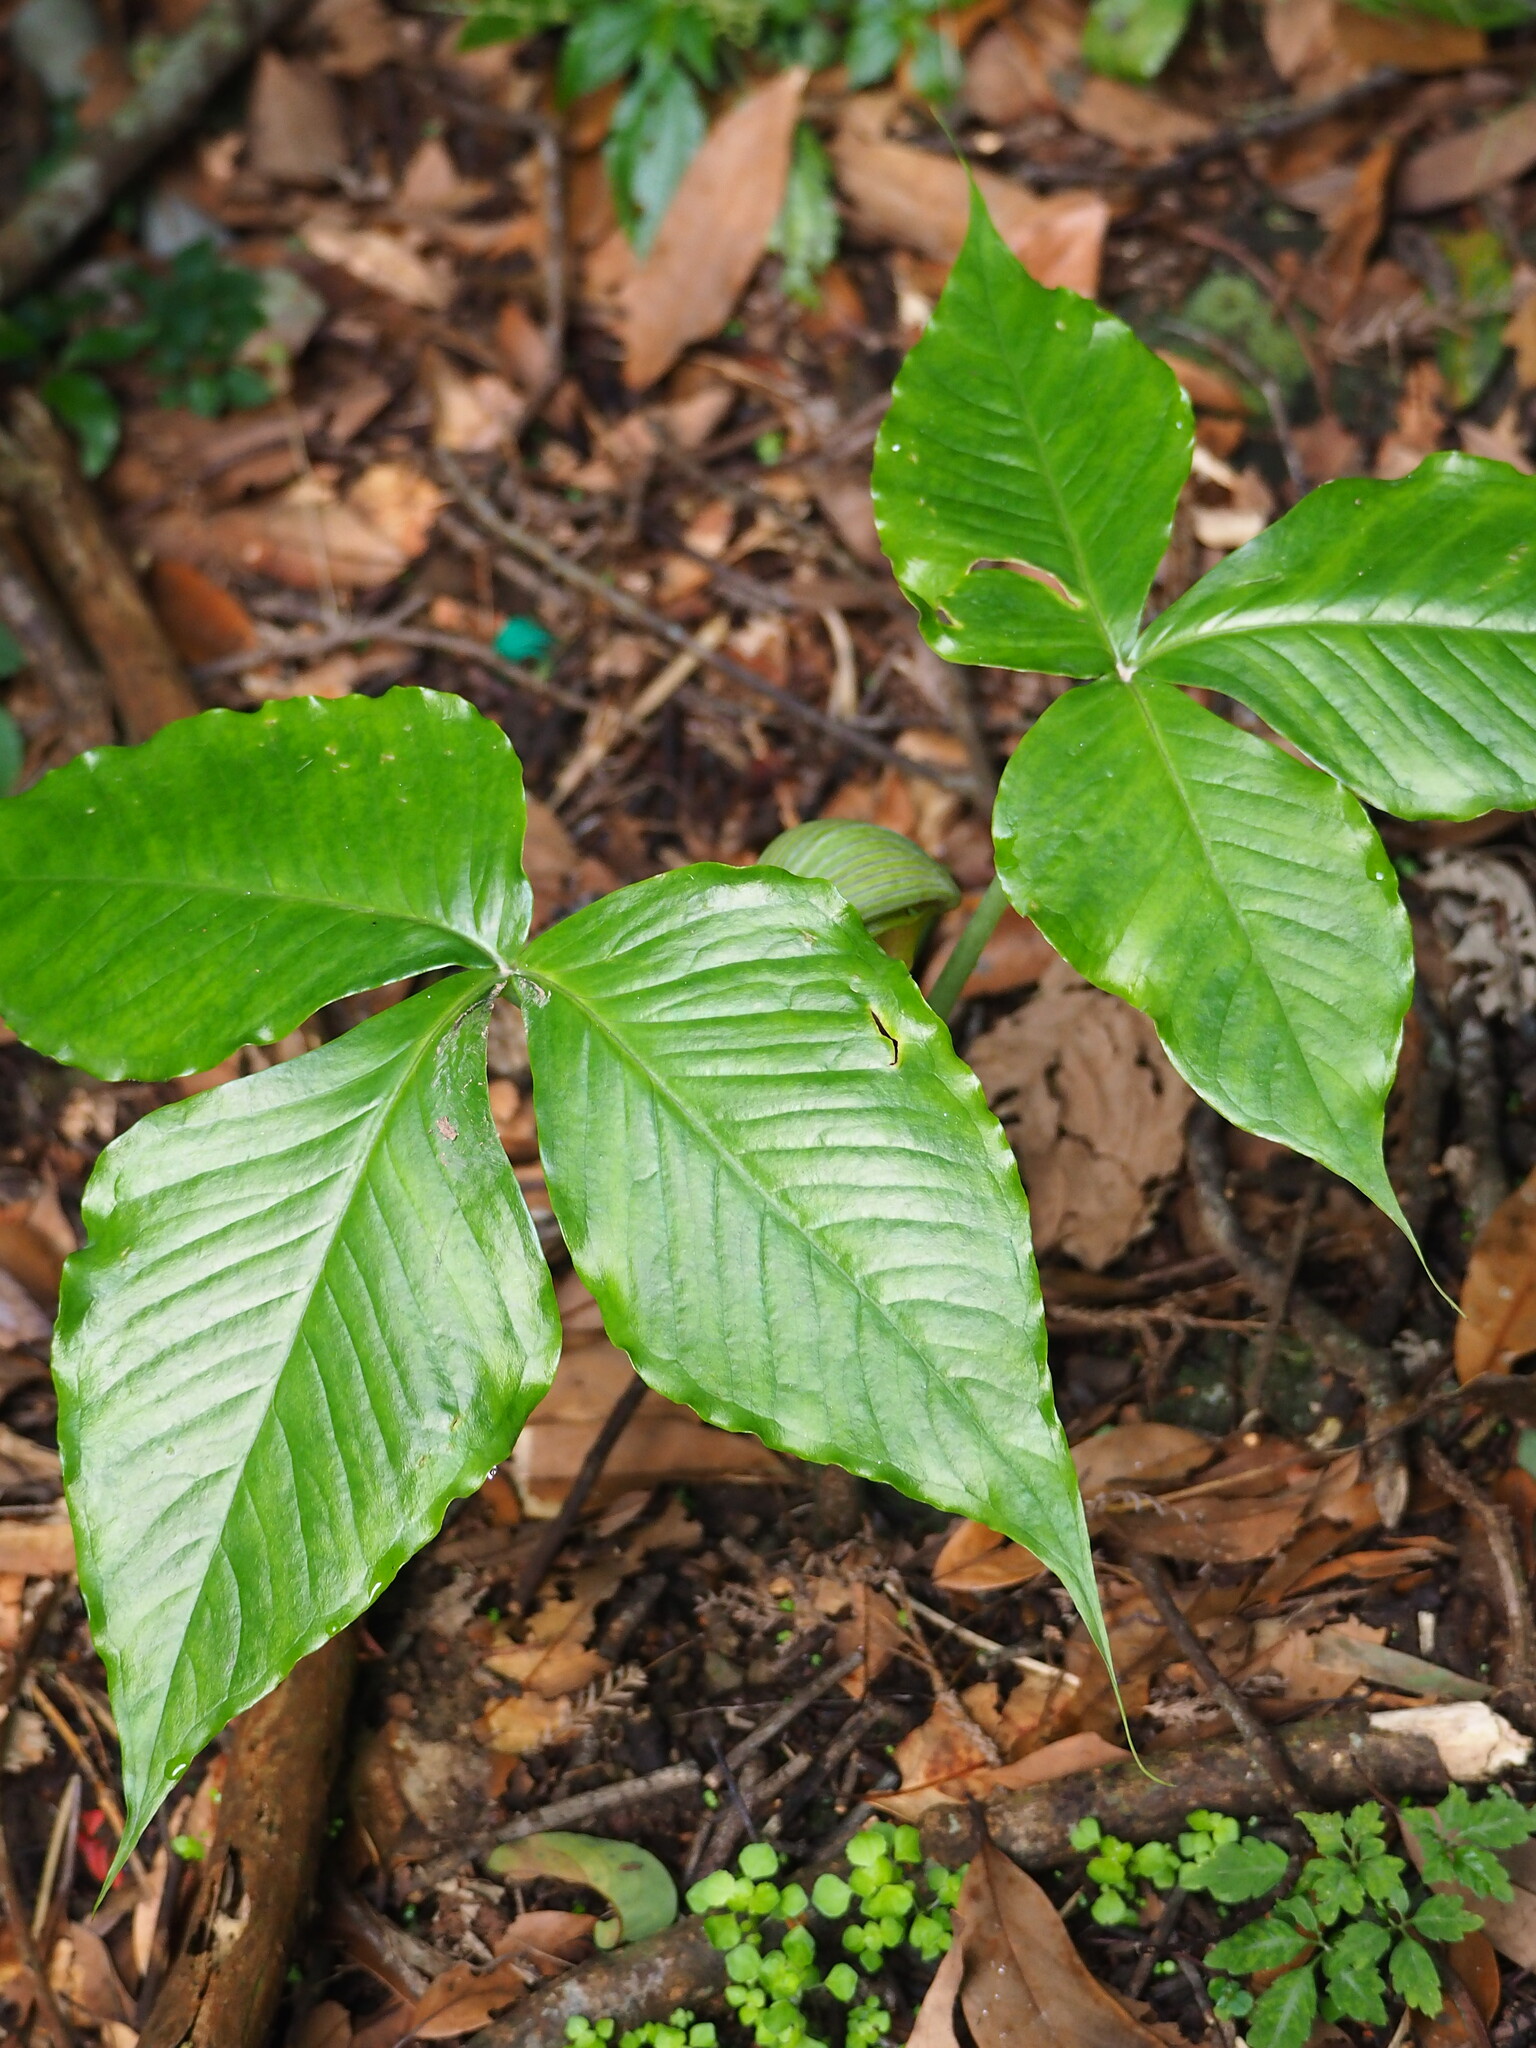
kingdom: Plantae
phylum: Tracheophyta
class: Liliopsida
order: Alismatales
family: Araceae
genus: Arisaema
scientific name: Arisaema ringens
